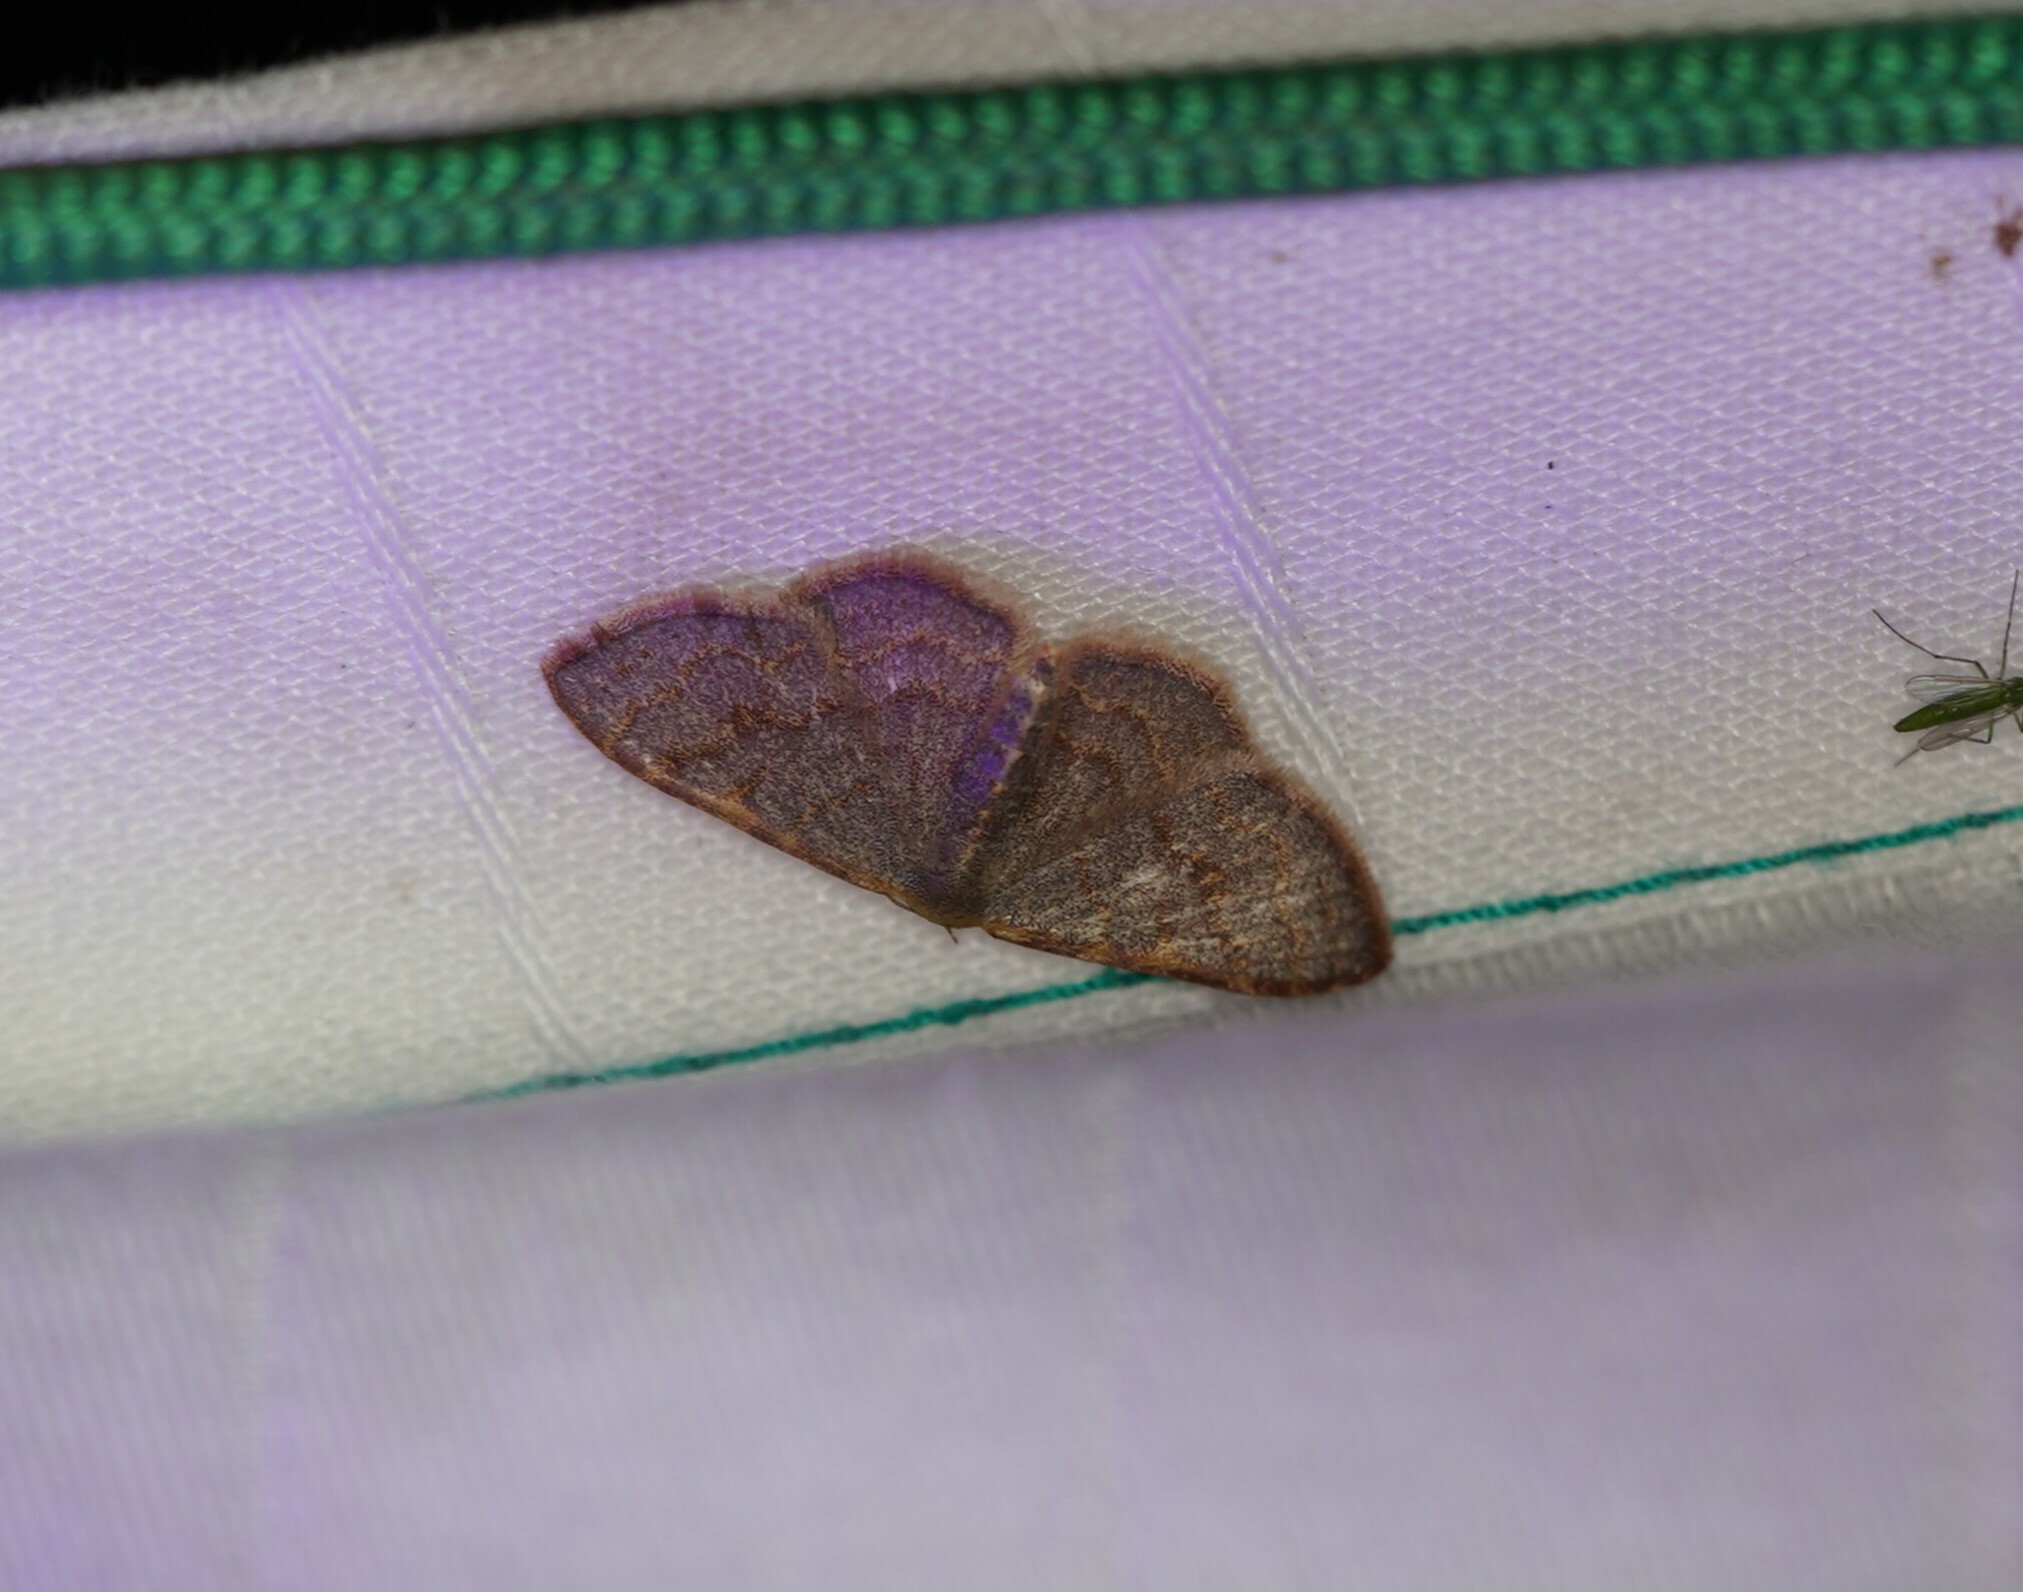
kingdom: Animalia
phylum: Arthropoda
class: Insecta
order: Lepidoptera
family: Geometridae
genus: Leptostales
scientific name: Leptostales pannaria
